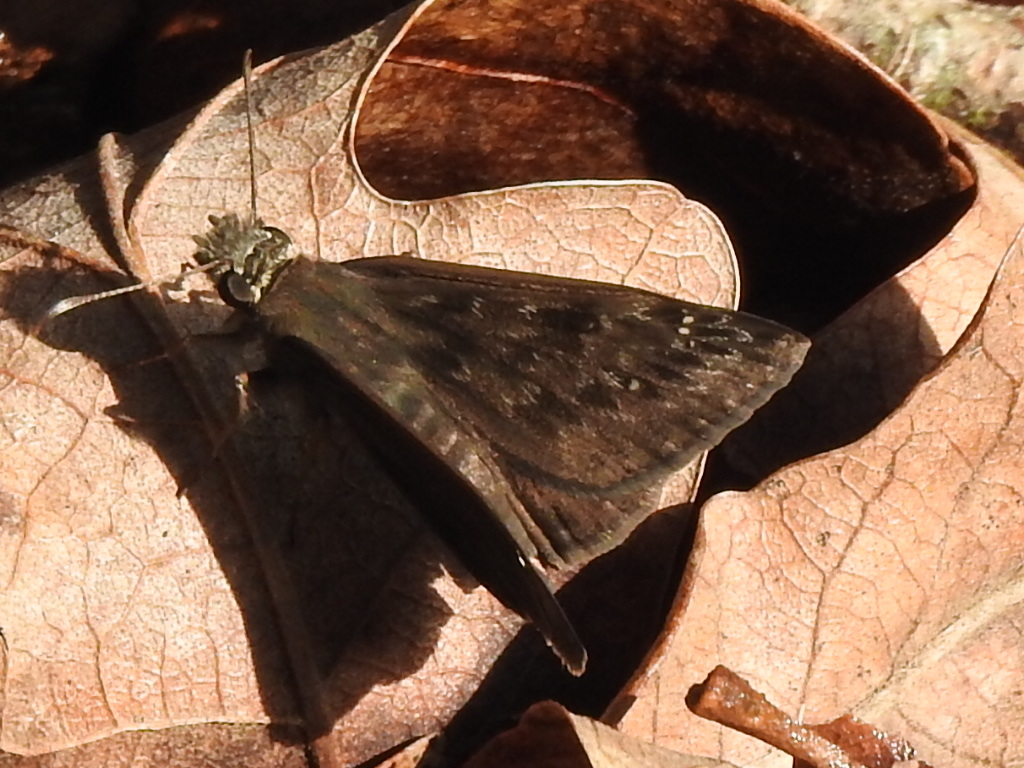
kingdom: Animalia
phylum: Arthropoda
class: Insecta
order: Lepidoptera
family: Hesperiidae
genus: Erynnis
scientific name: Erynnis horatius
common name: Horace's duskywing
